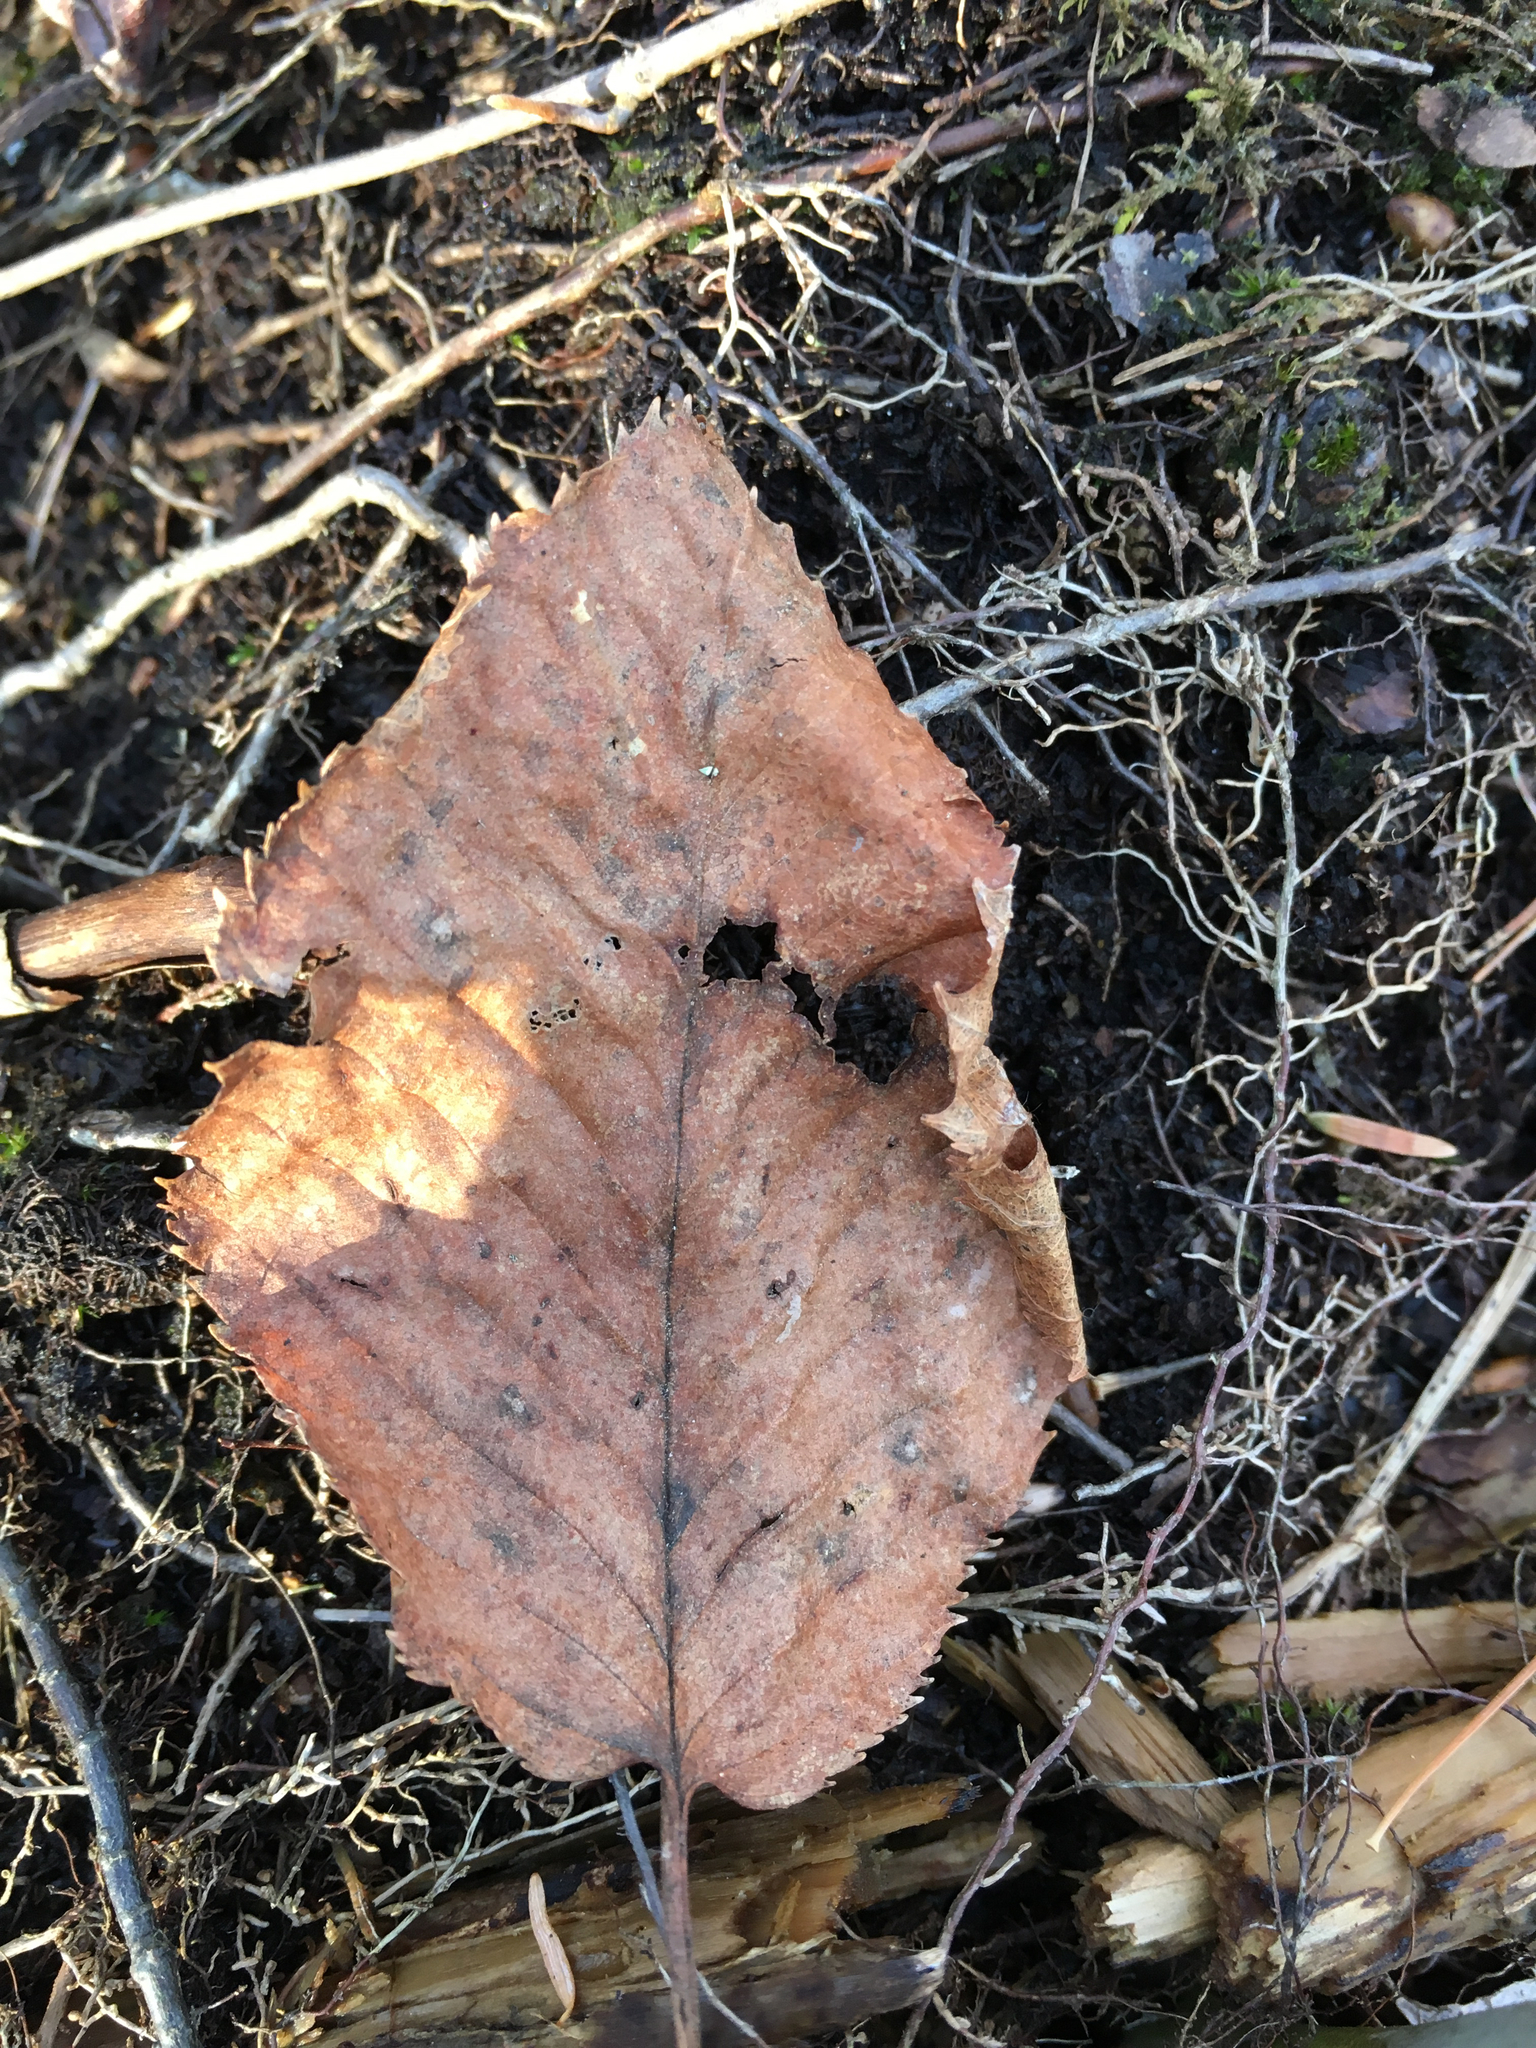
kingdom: Plantae
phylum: Tracheophyta
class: Magnoliopsida
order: Fagales
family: Betulaceae
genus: Betula
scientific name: Betula alleghaniensis
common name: Yellow birch
